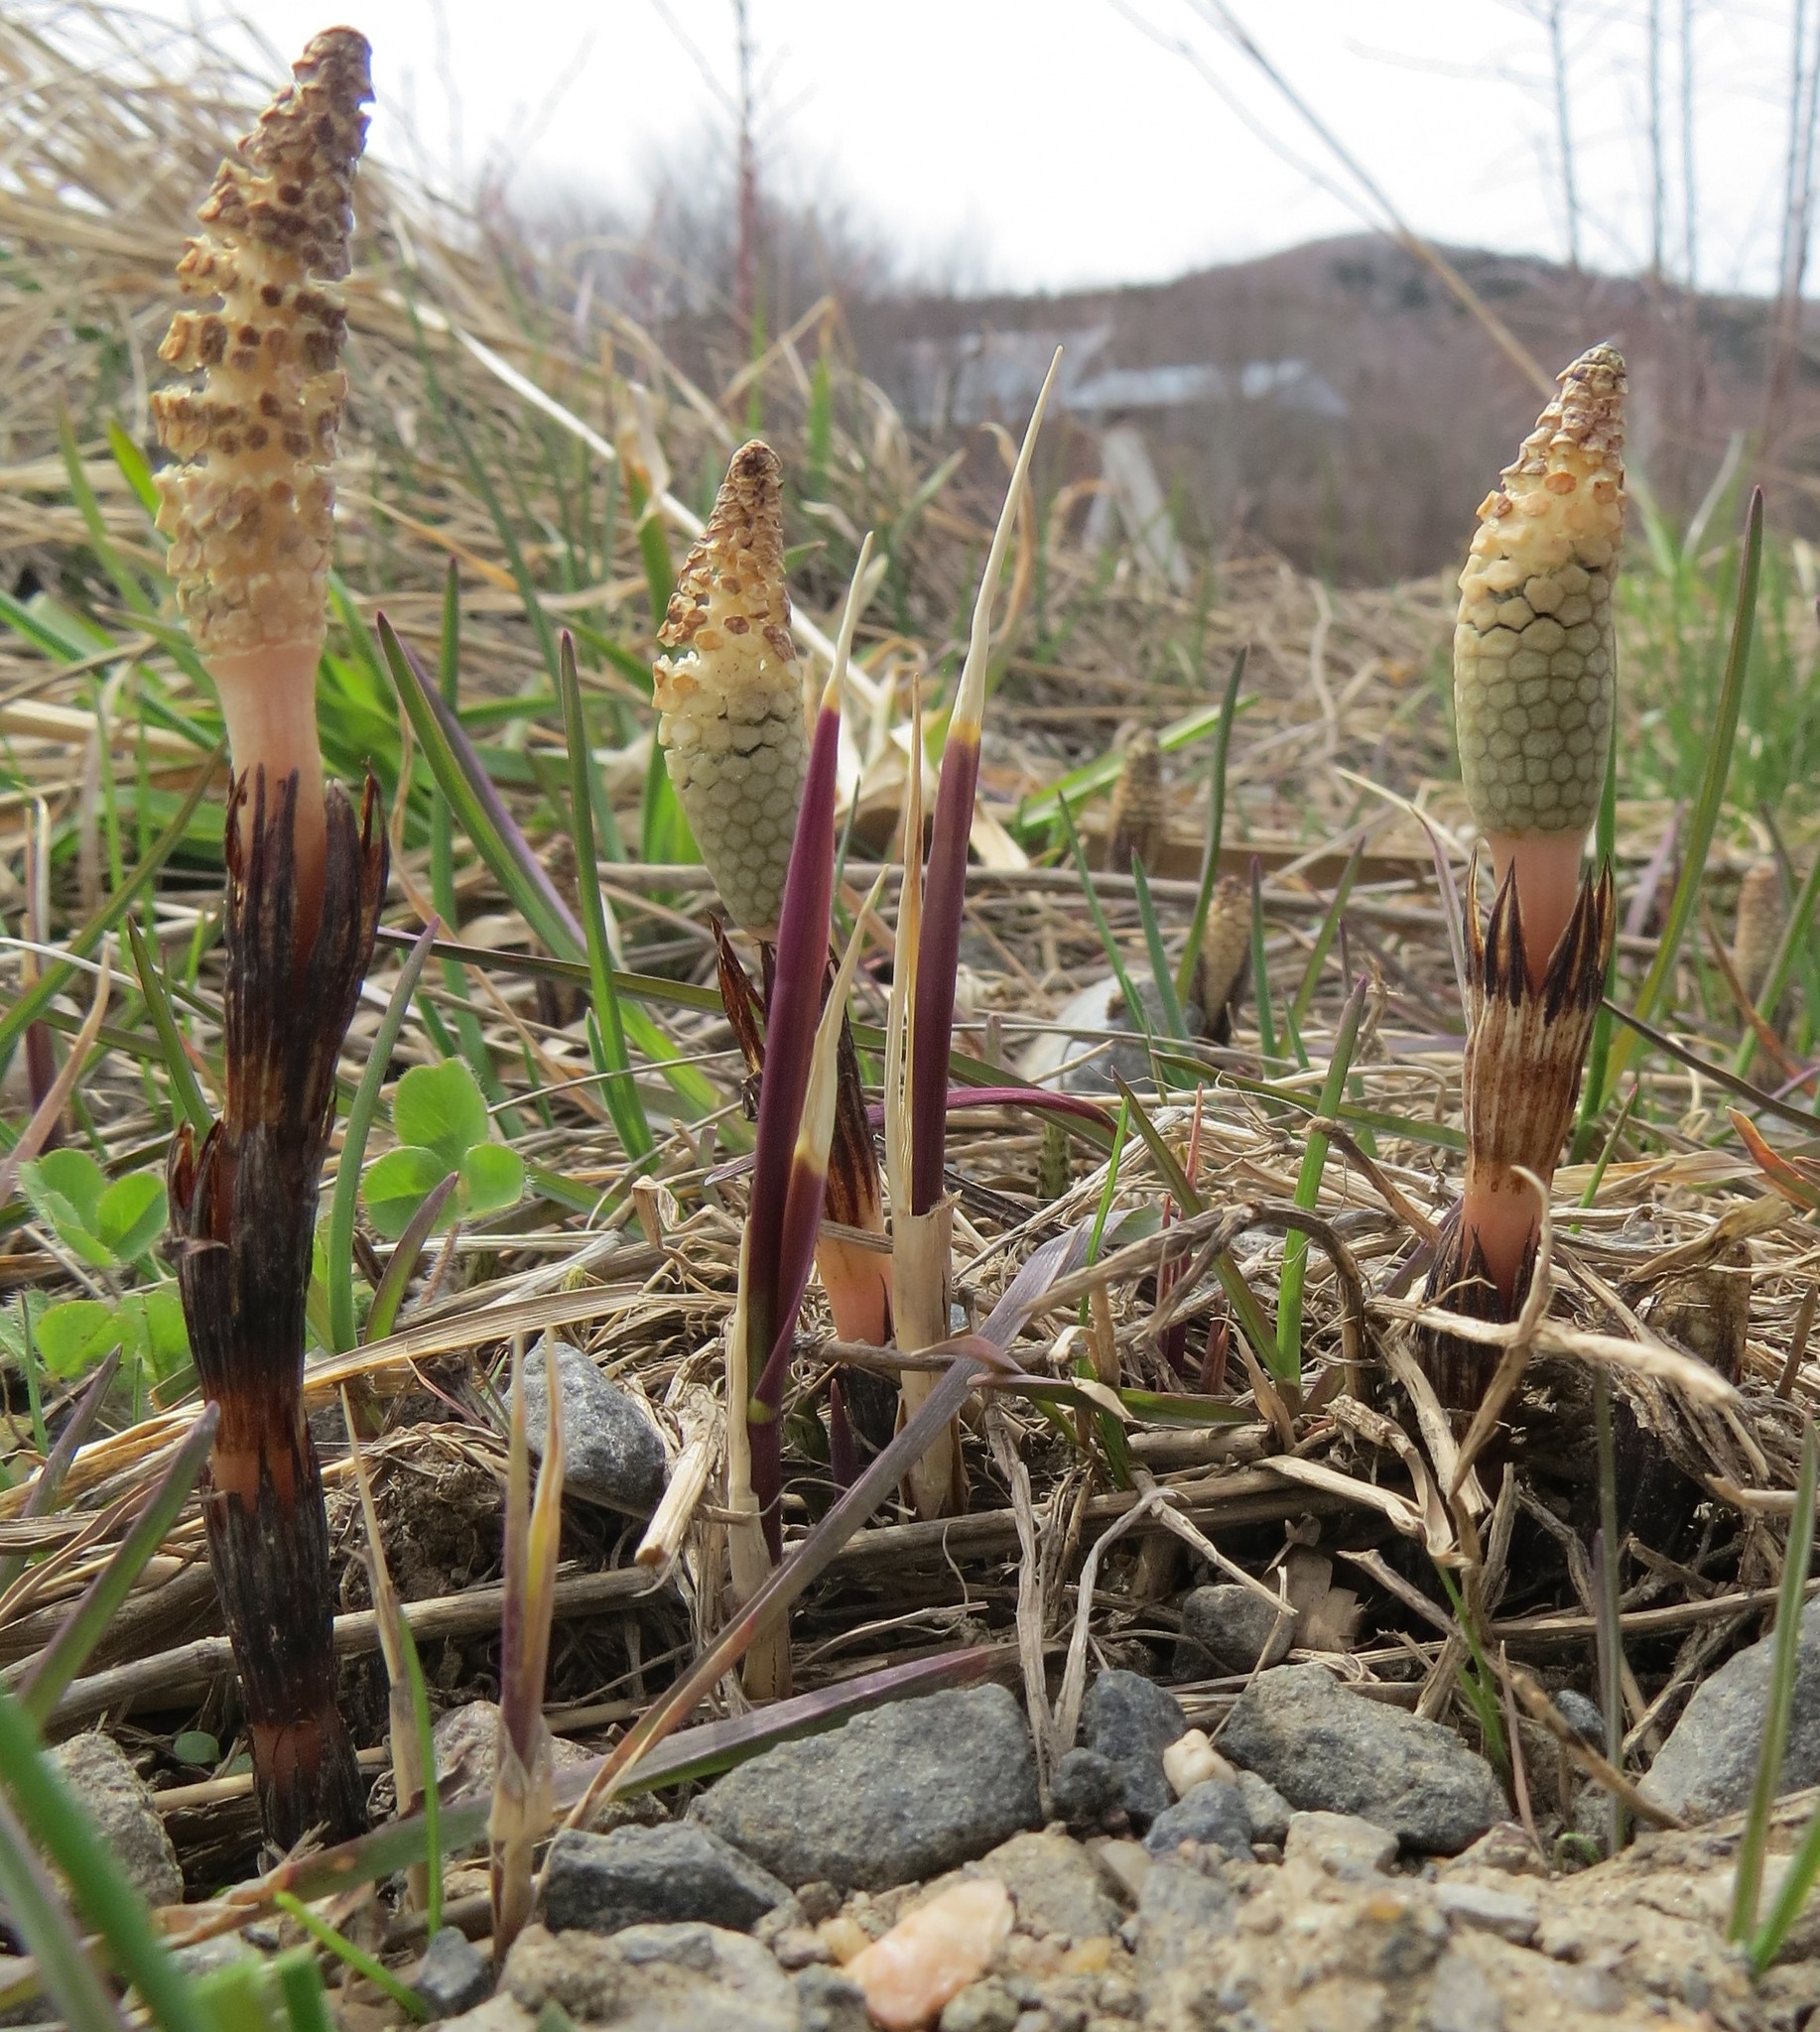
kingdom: Plantae
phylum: Tracheophyta
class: Polypodiopsida
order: Equisetales
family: Equisetaceae
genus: Equisetum
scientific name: Equisetum arvense
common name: Field horsetail
